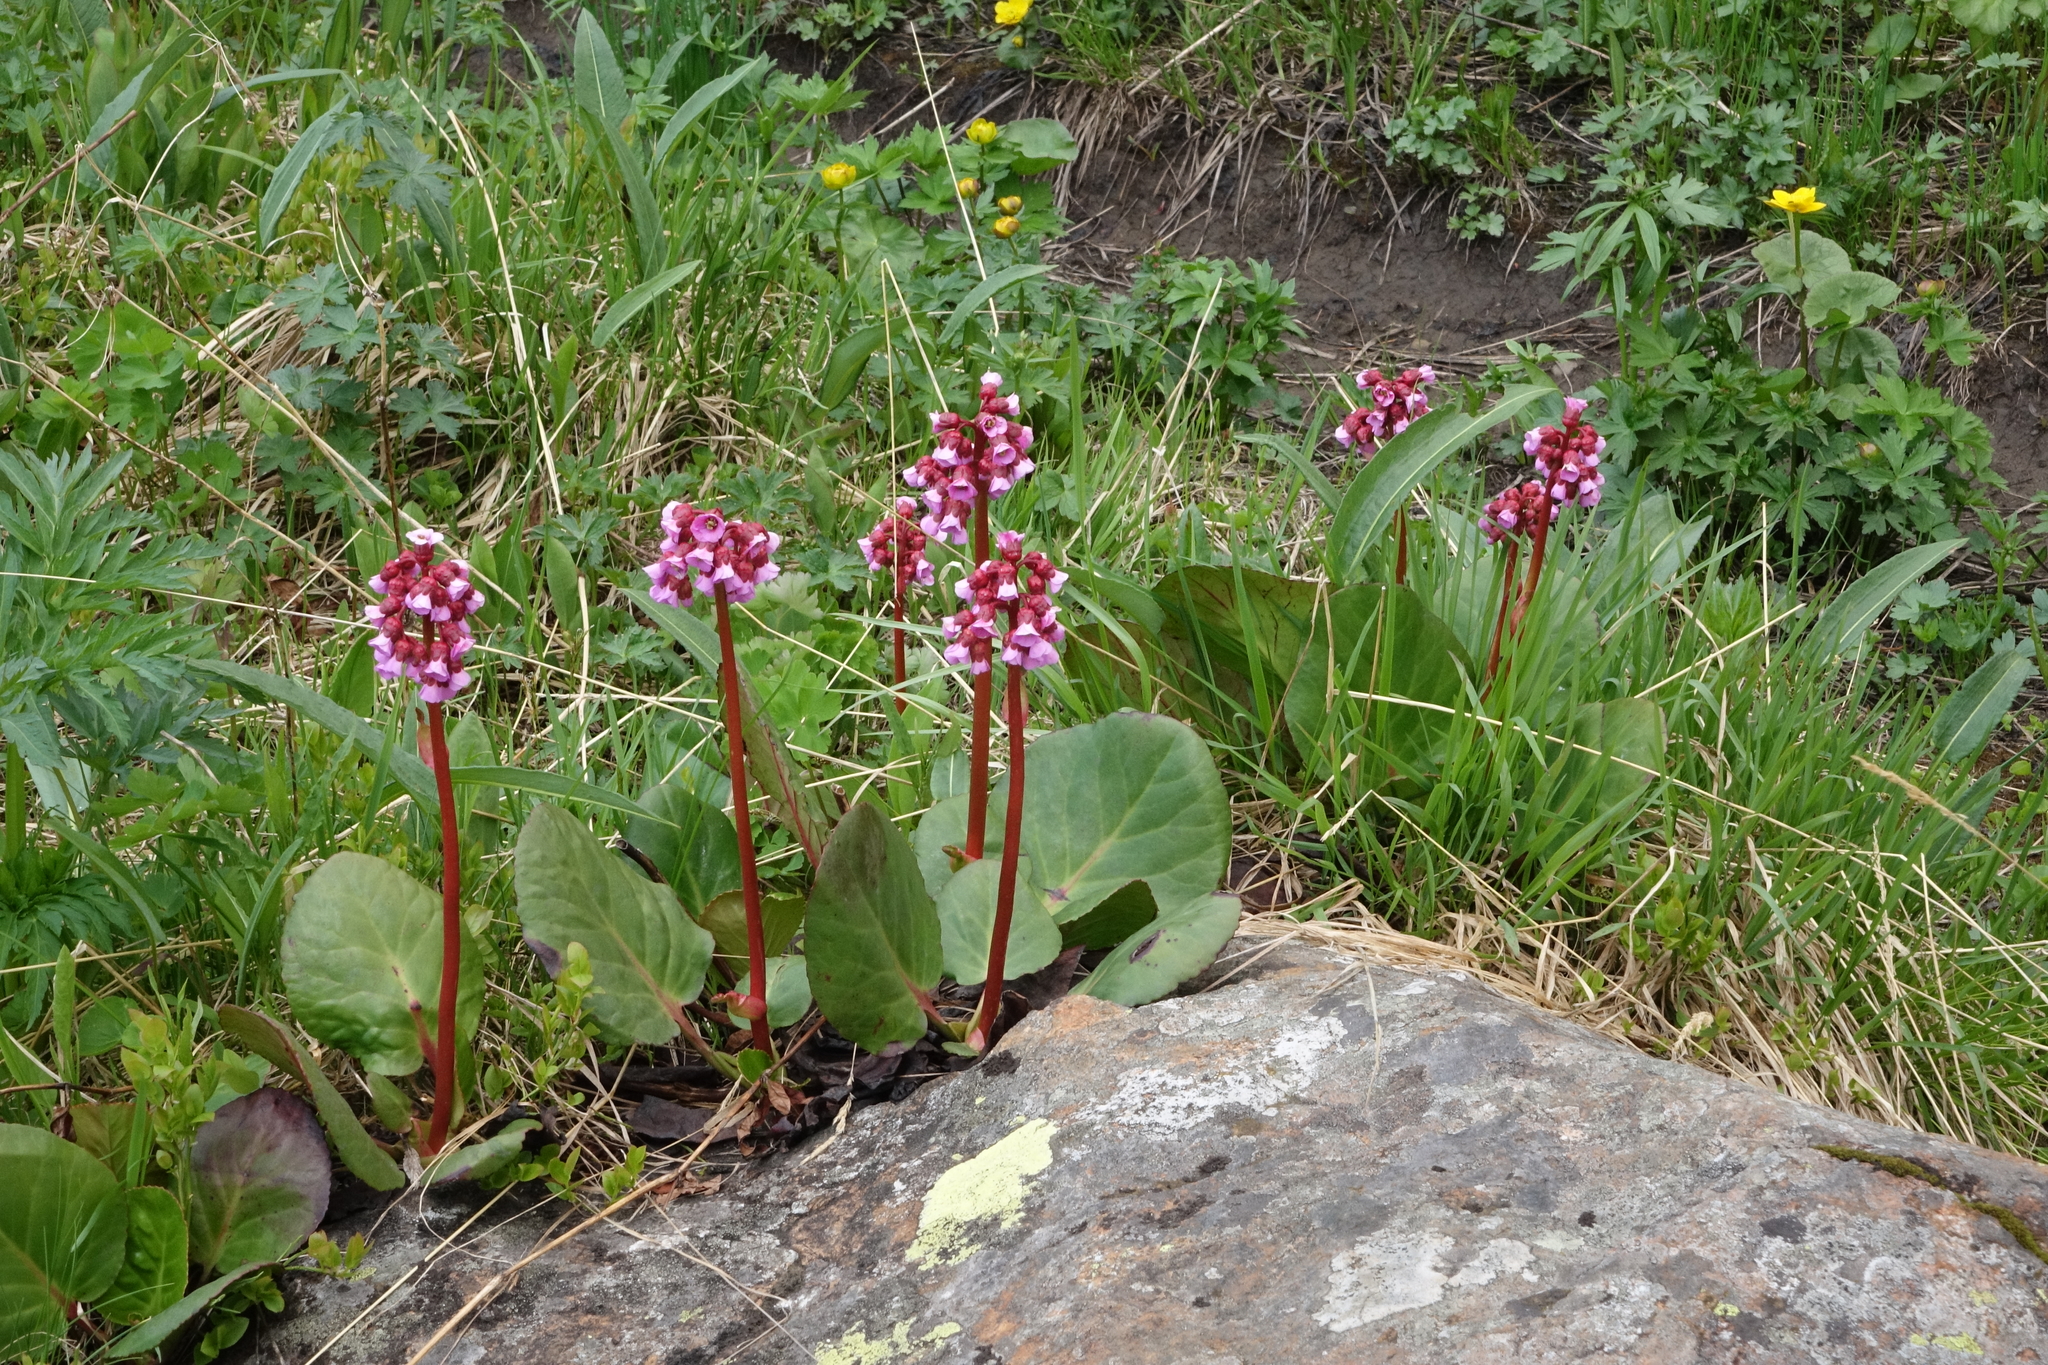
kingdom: Plantae
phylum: Tracheophyta
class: Magnoliopsida
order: Saxifragales
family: Saxifragaceae
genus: Bergenia
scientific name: Bergenia crassifolia
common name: Elephant-ears
